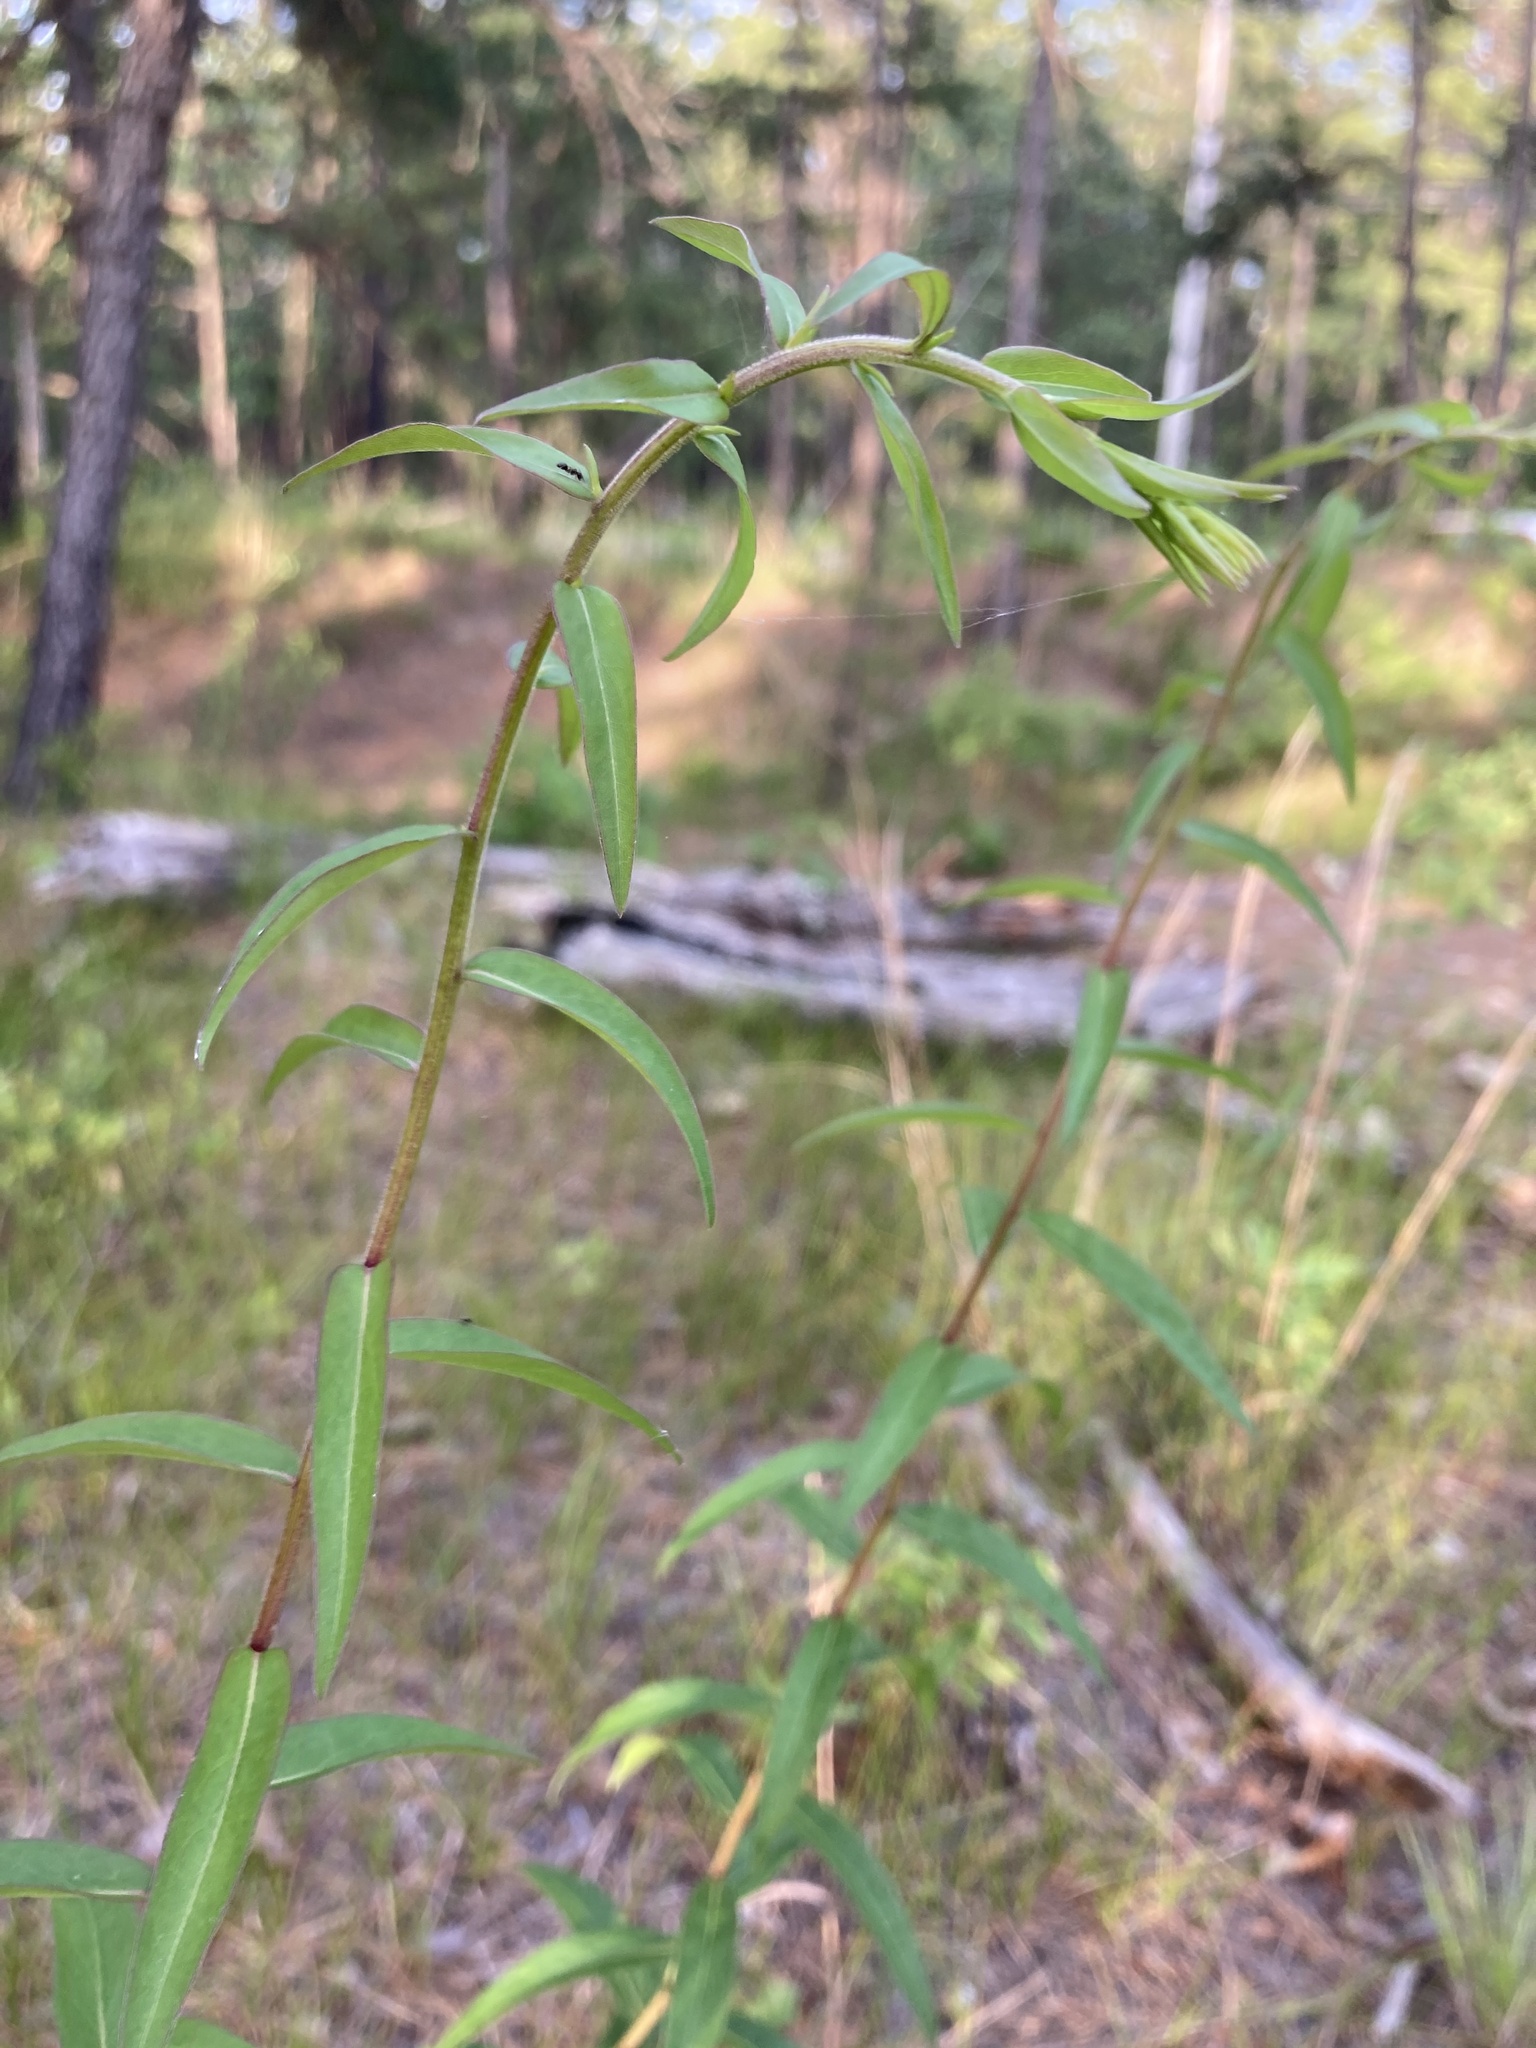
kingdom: Plantae
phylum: Tracheophyta
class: Magnoliopsida
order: Asterales
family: Asteraceae
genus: Solidago
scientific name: Solidago odora
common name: Anise-scented goldenrod
